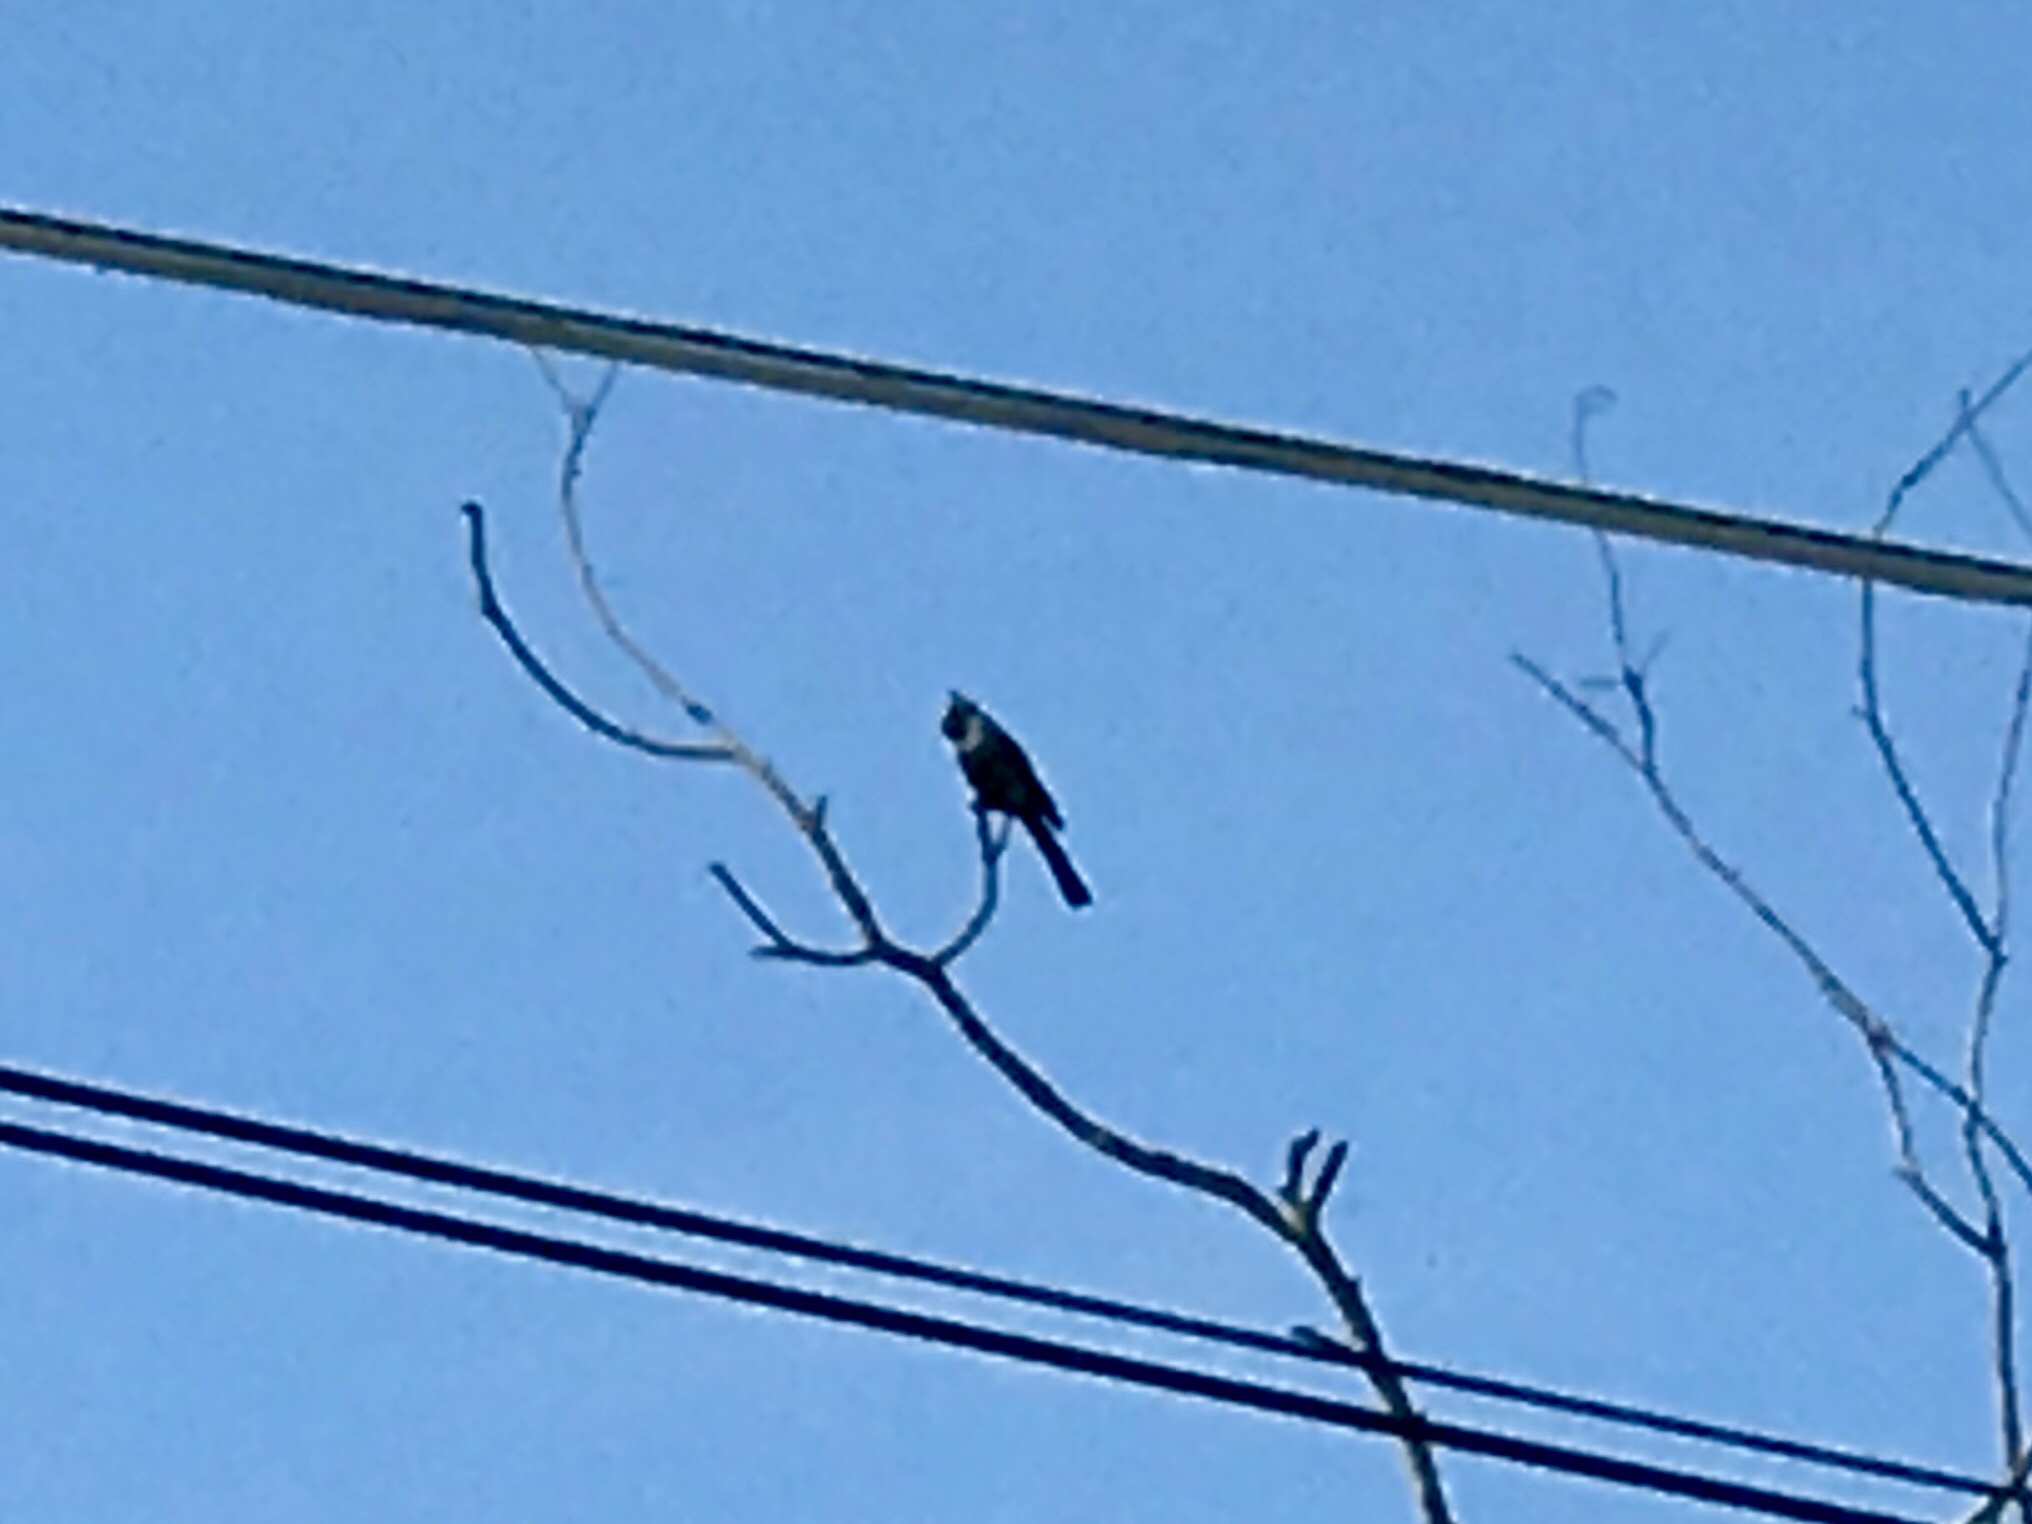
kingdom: Animalia
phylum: Chordata
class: Aves
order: Passeriformes
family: Ptilogonatidae
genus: Phainopepla
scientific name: Phainopepla nitens
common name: Phainopepla
